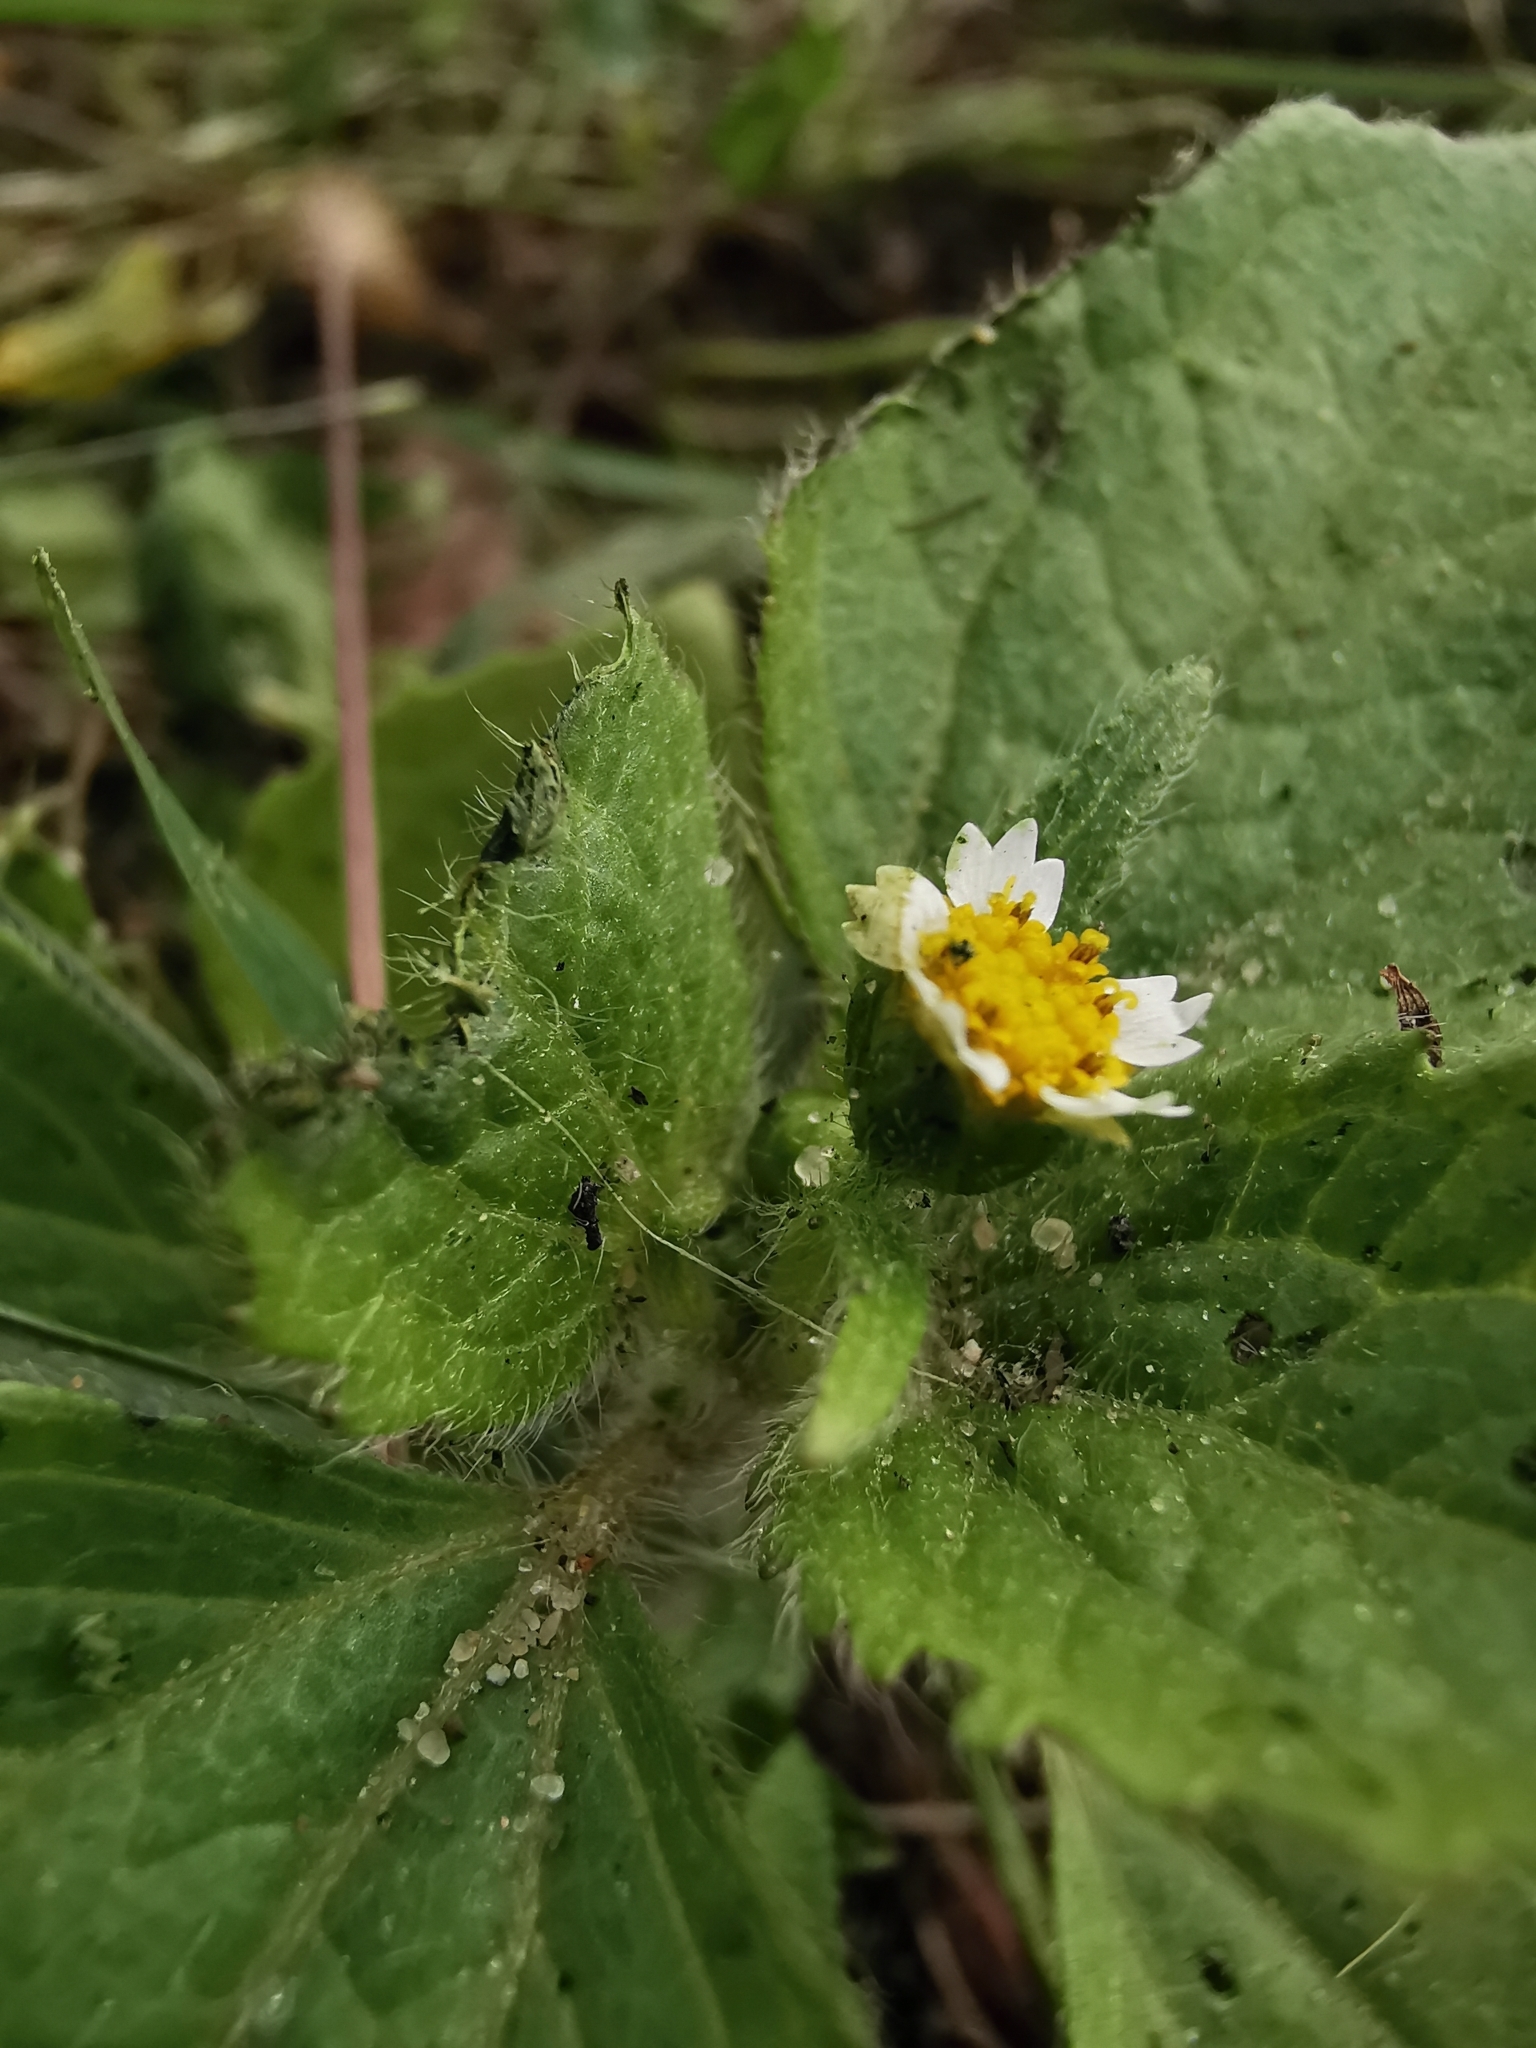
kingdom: Plantae
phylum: Tracheophyta
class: Magnoliopsida
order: Asterales
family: Asteraceae
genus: Galinsoga
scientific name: Galinsoga quadriradiata
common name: Shaggy soldier
